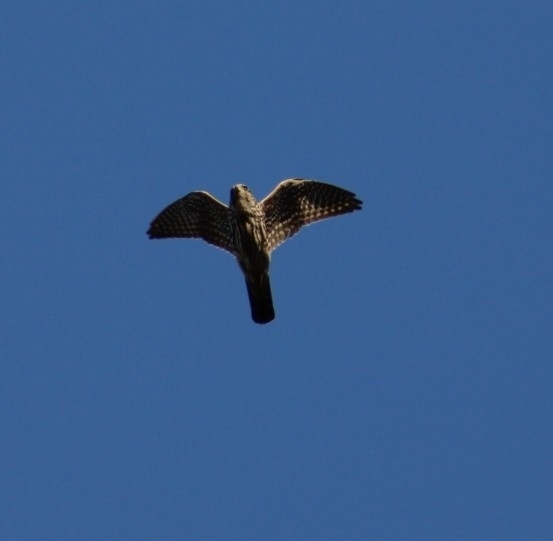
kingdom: Animalia
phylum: Chordata
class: Aves
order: Falconiformes
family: Falconidae
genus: Falco
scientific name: Falco columbarius
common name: Merlin
